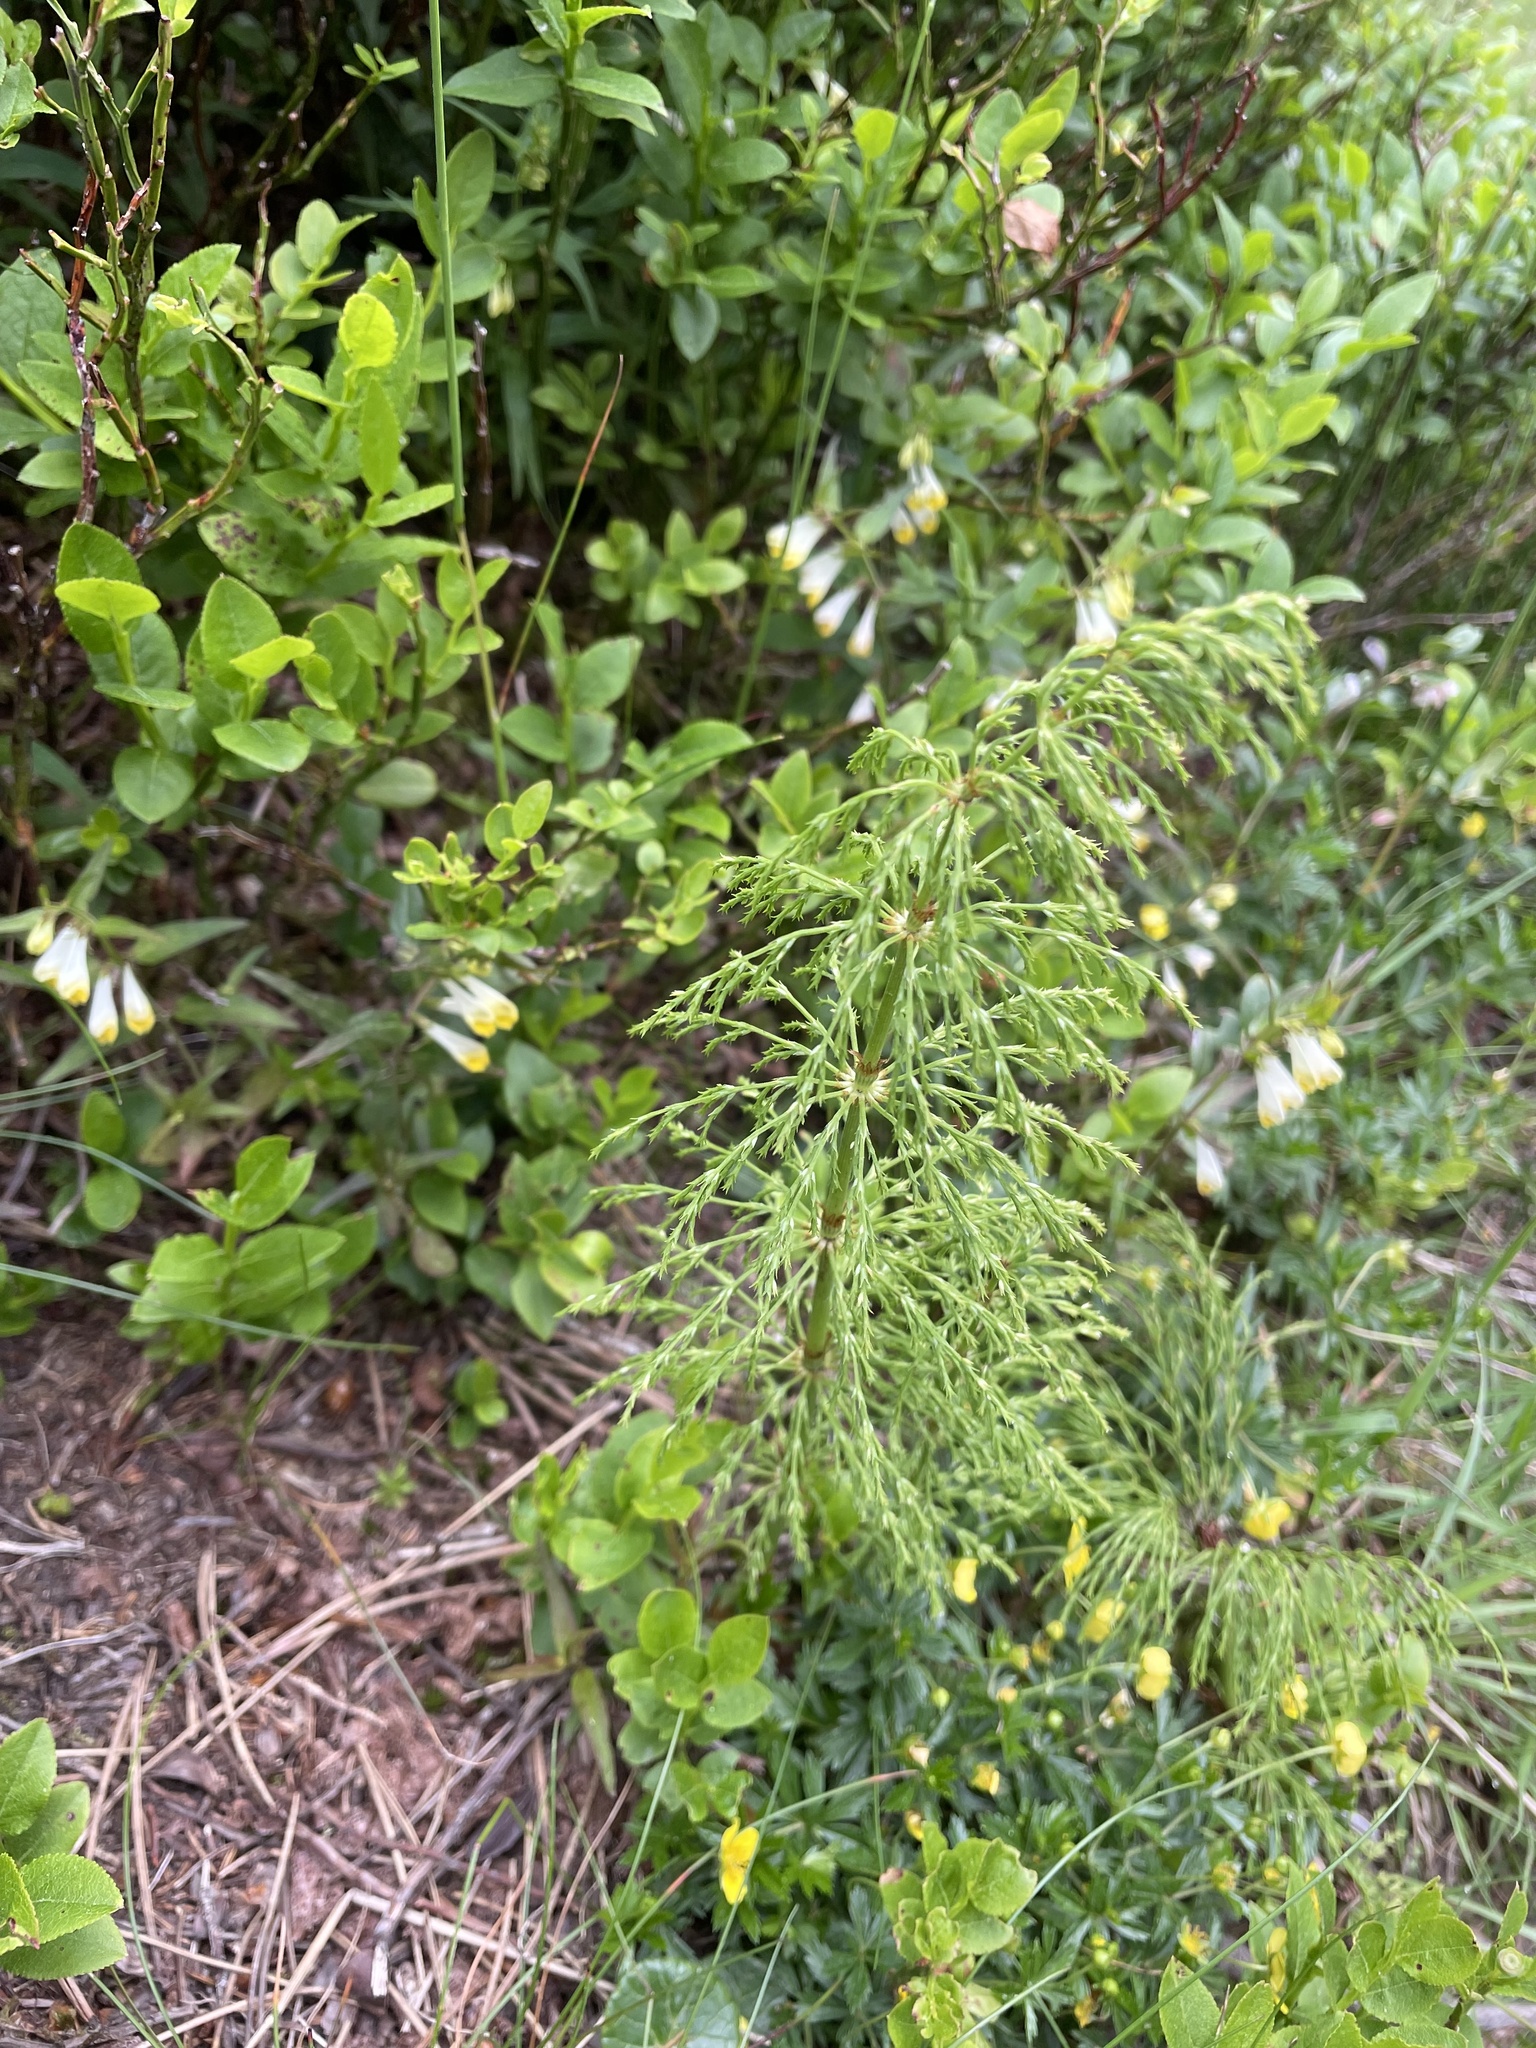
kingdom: Plantae
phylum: Tracheophyta
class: Polypodiopsida
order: Equisetales
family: Equisetaceae
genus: Equisetum
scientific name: Equisetum sylvaticum
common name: Wood horsetail
